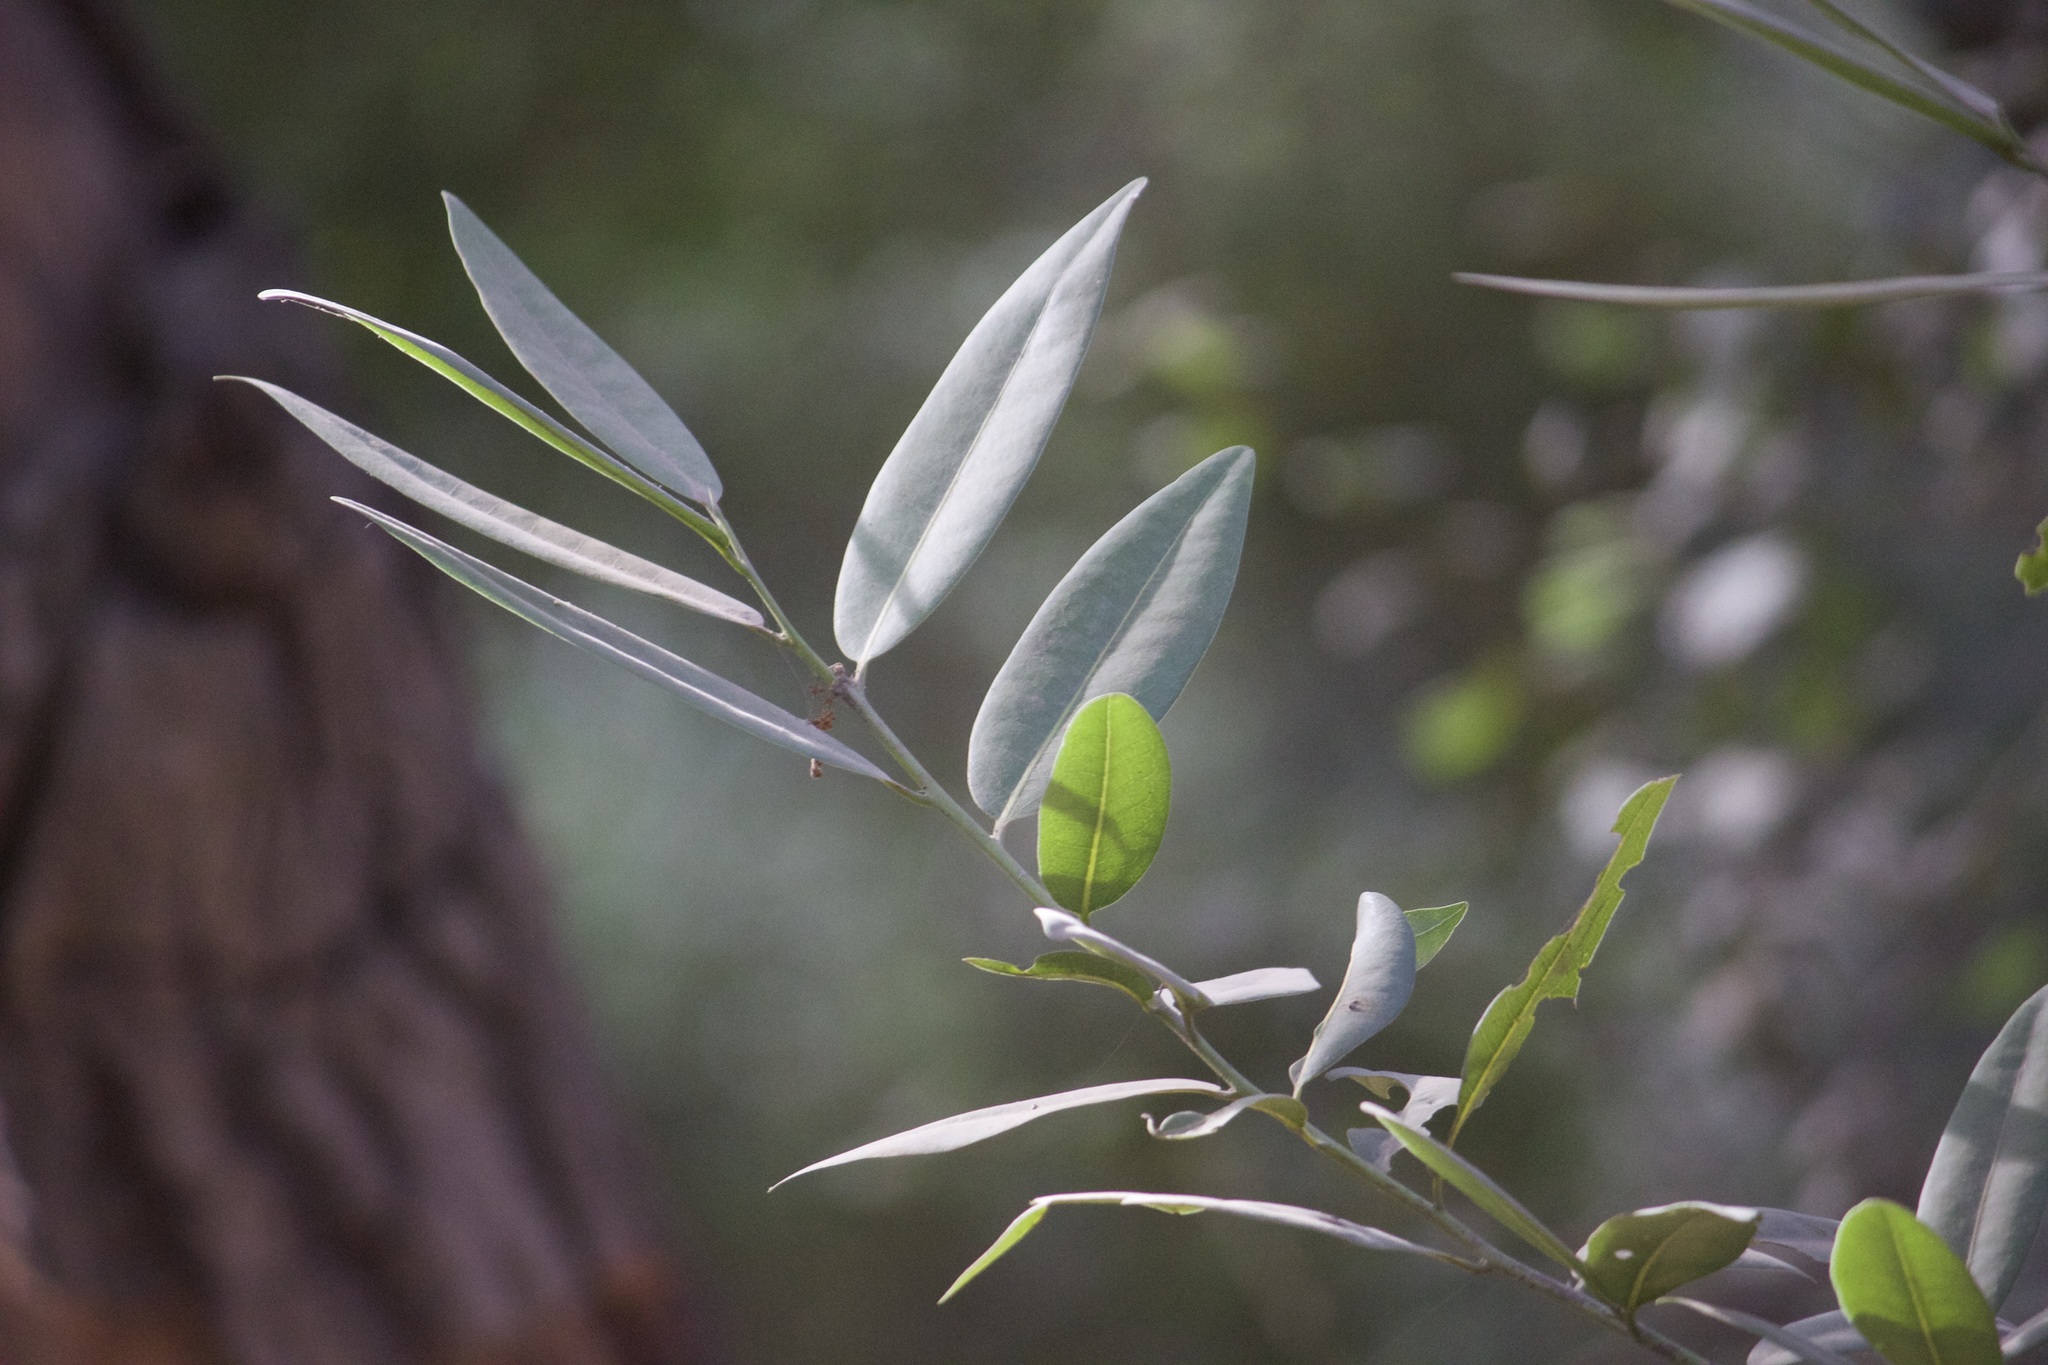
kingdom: Plantae
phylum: Tracheophyta
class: Magnoliopsida
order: Laurales
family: Lauraceae
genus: Umbellularia
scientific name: Umbellularia californica
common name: California bay
